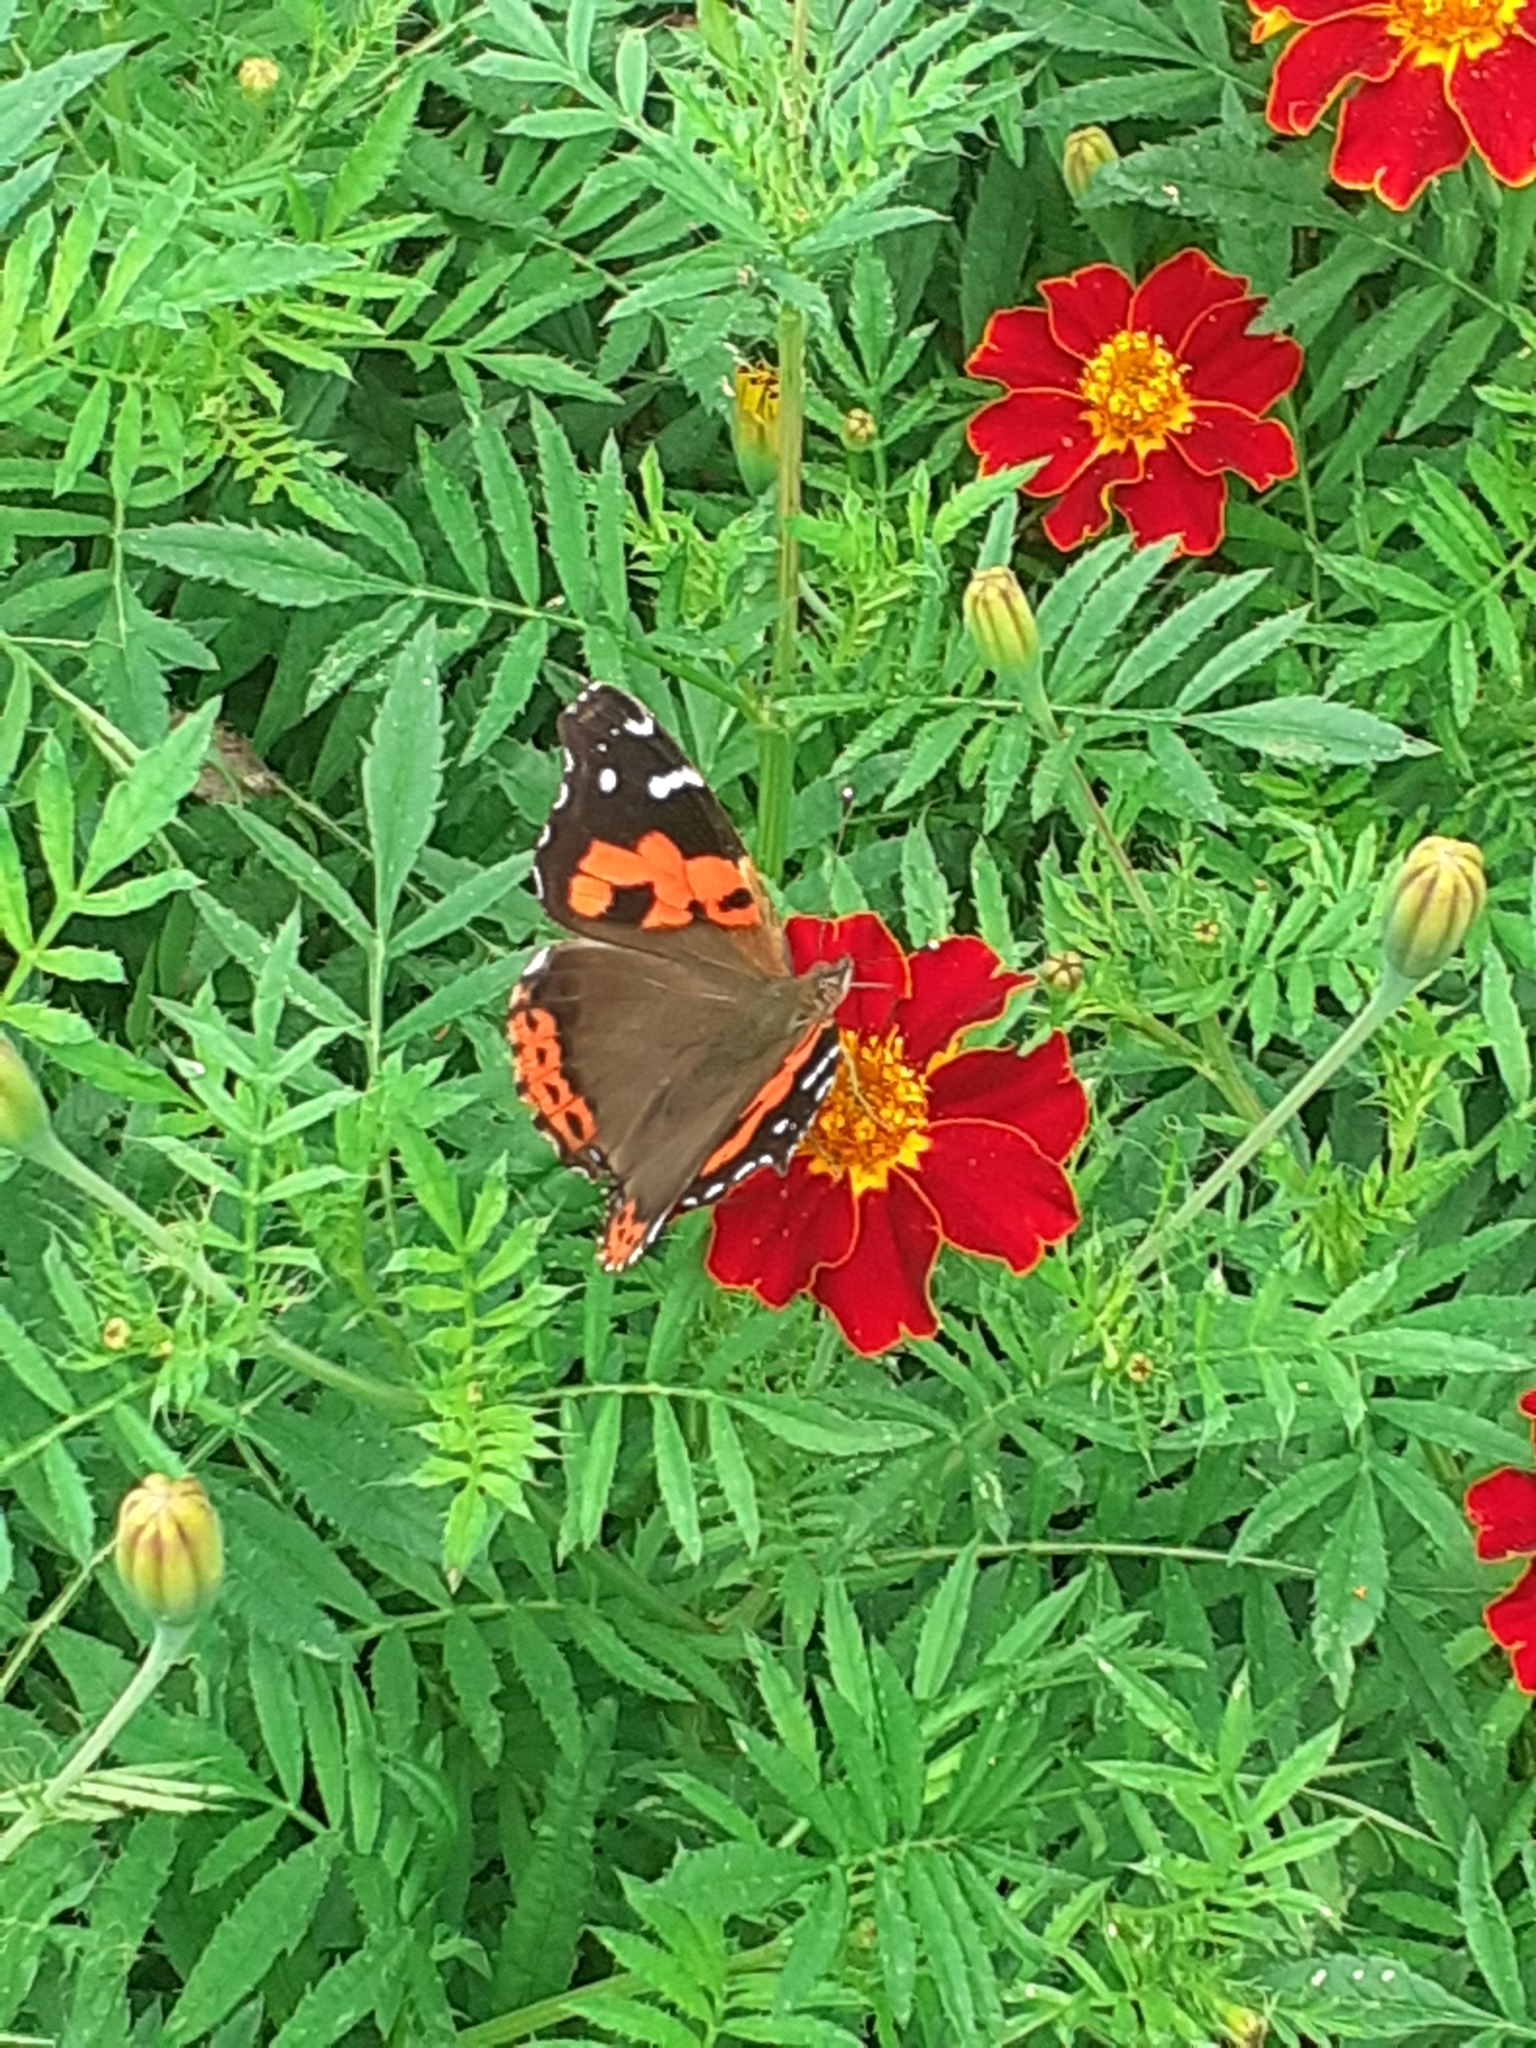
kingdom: Animalia
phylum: Arthropoda
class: Insecta
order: Lepidoptera
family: Nymphalidae
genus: Vanessa
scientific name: Vanessa vulcania
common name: Canary red admiral
